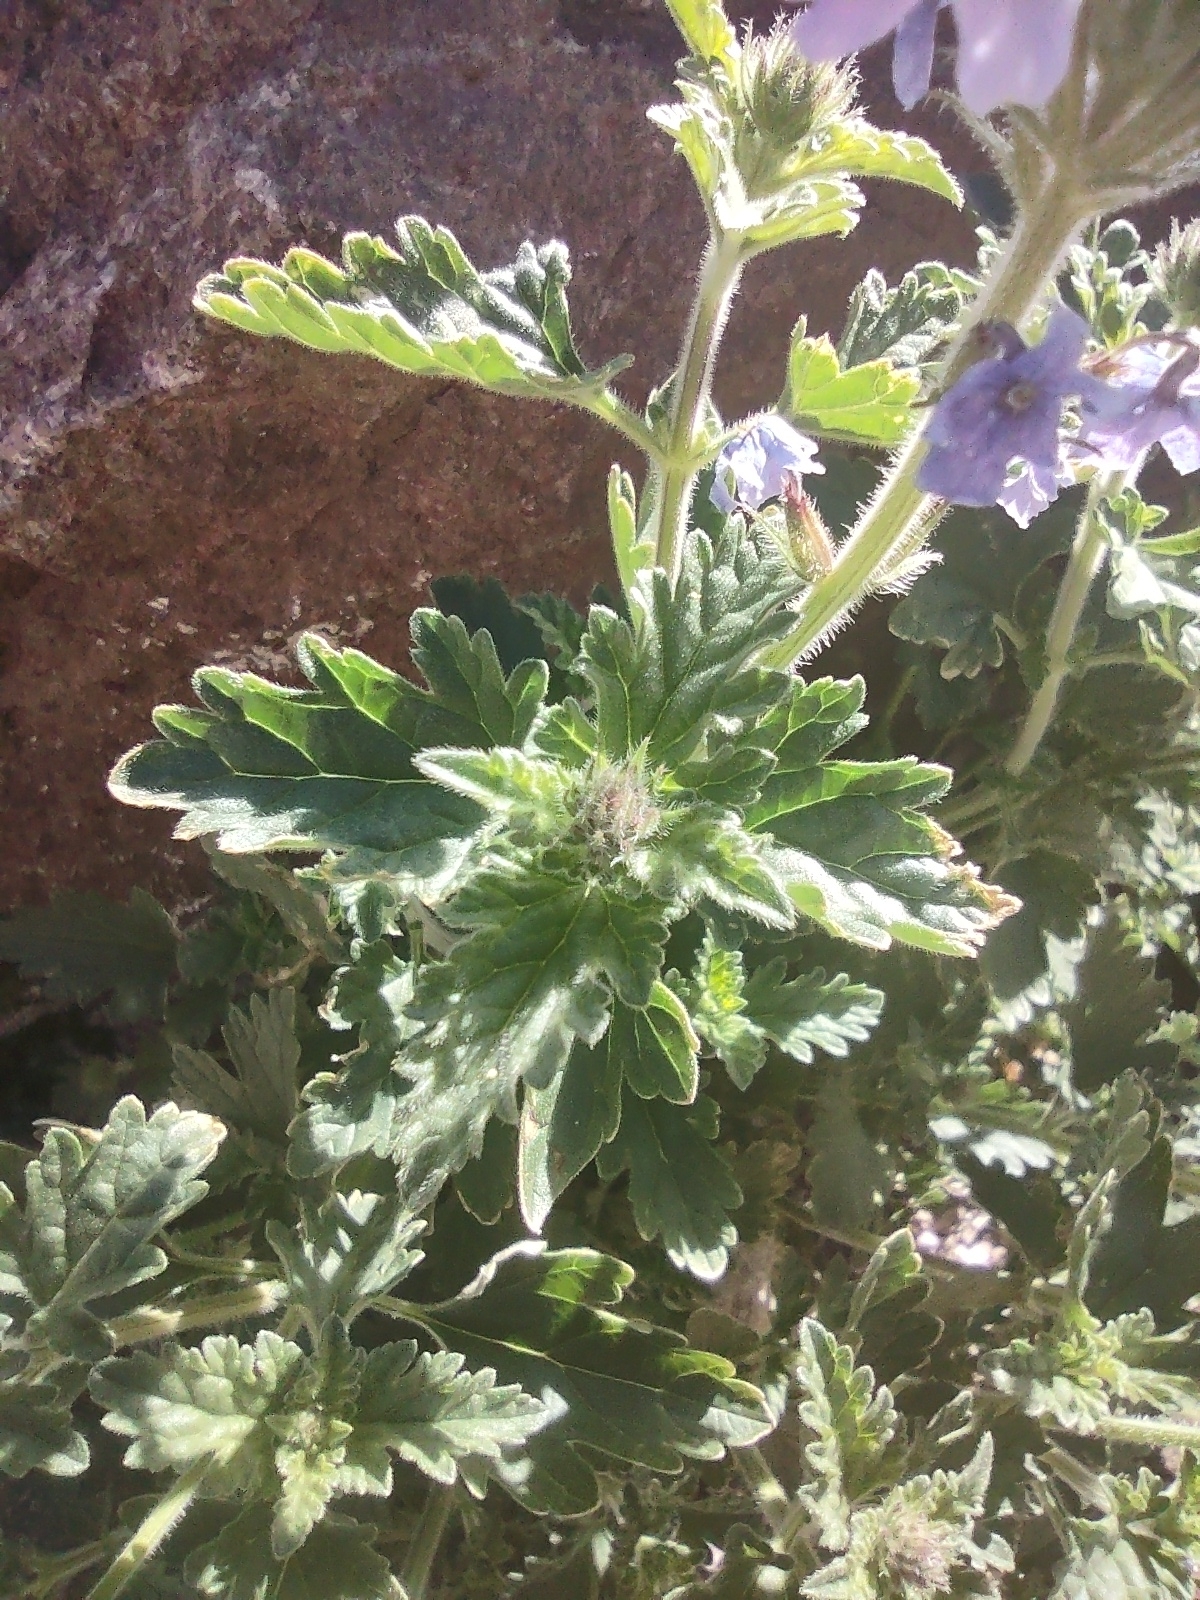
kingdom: Plantae
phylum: Tracheophyta
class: Magnoliopsida
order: Lamiales
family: Verbenaceae
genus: Verbena
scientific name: Verbena gooddingii
